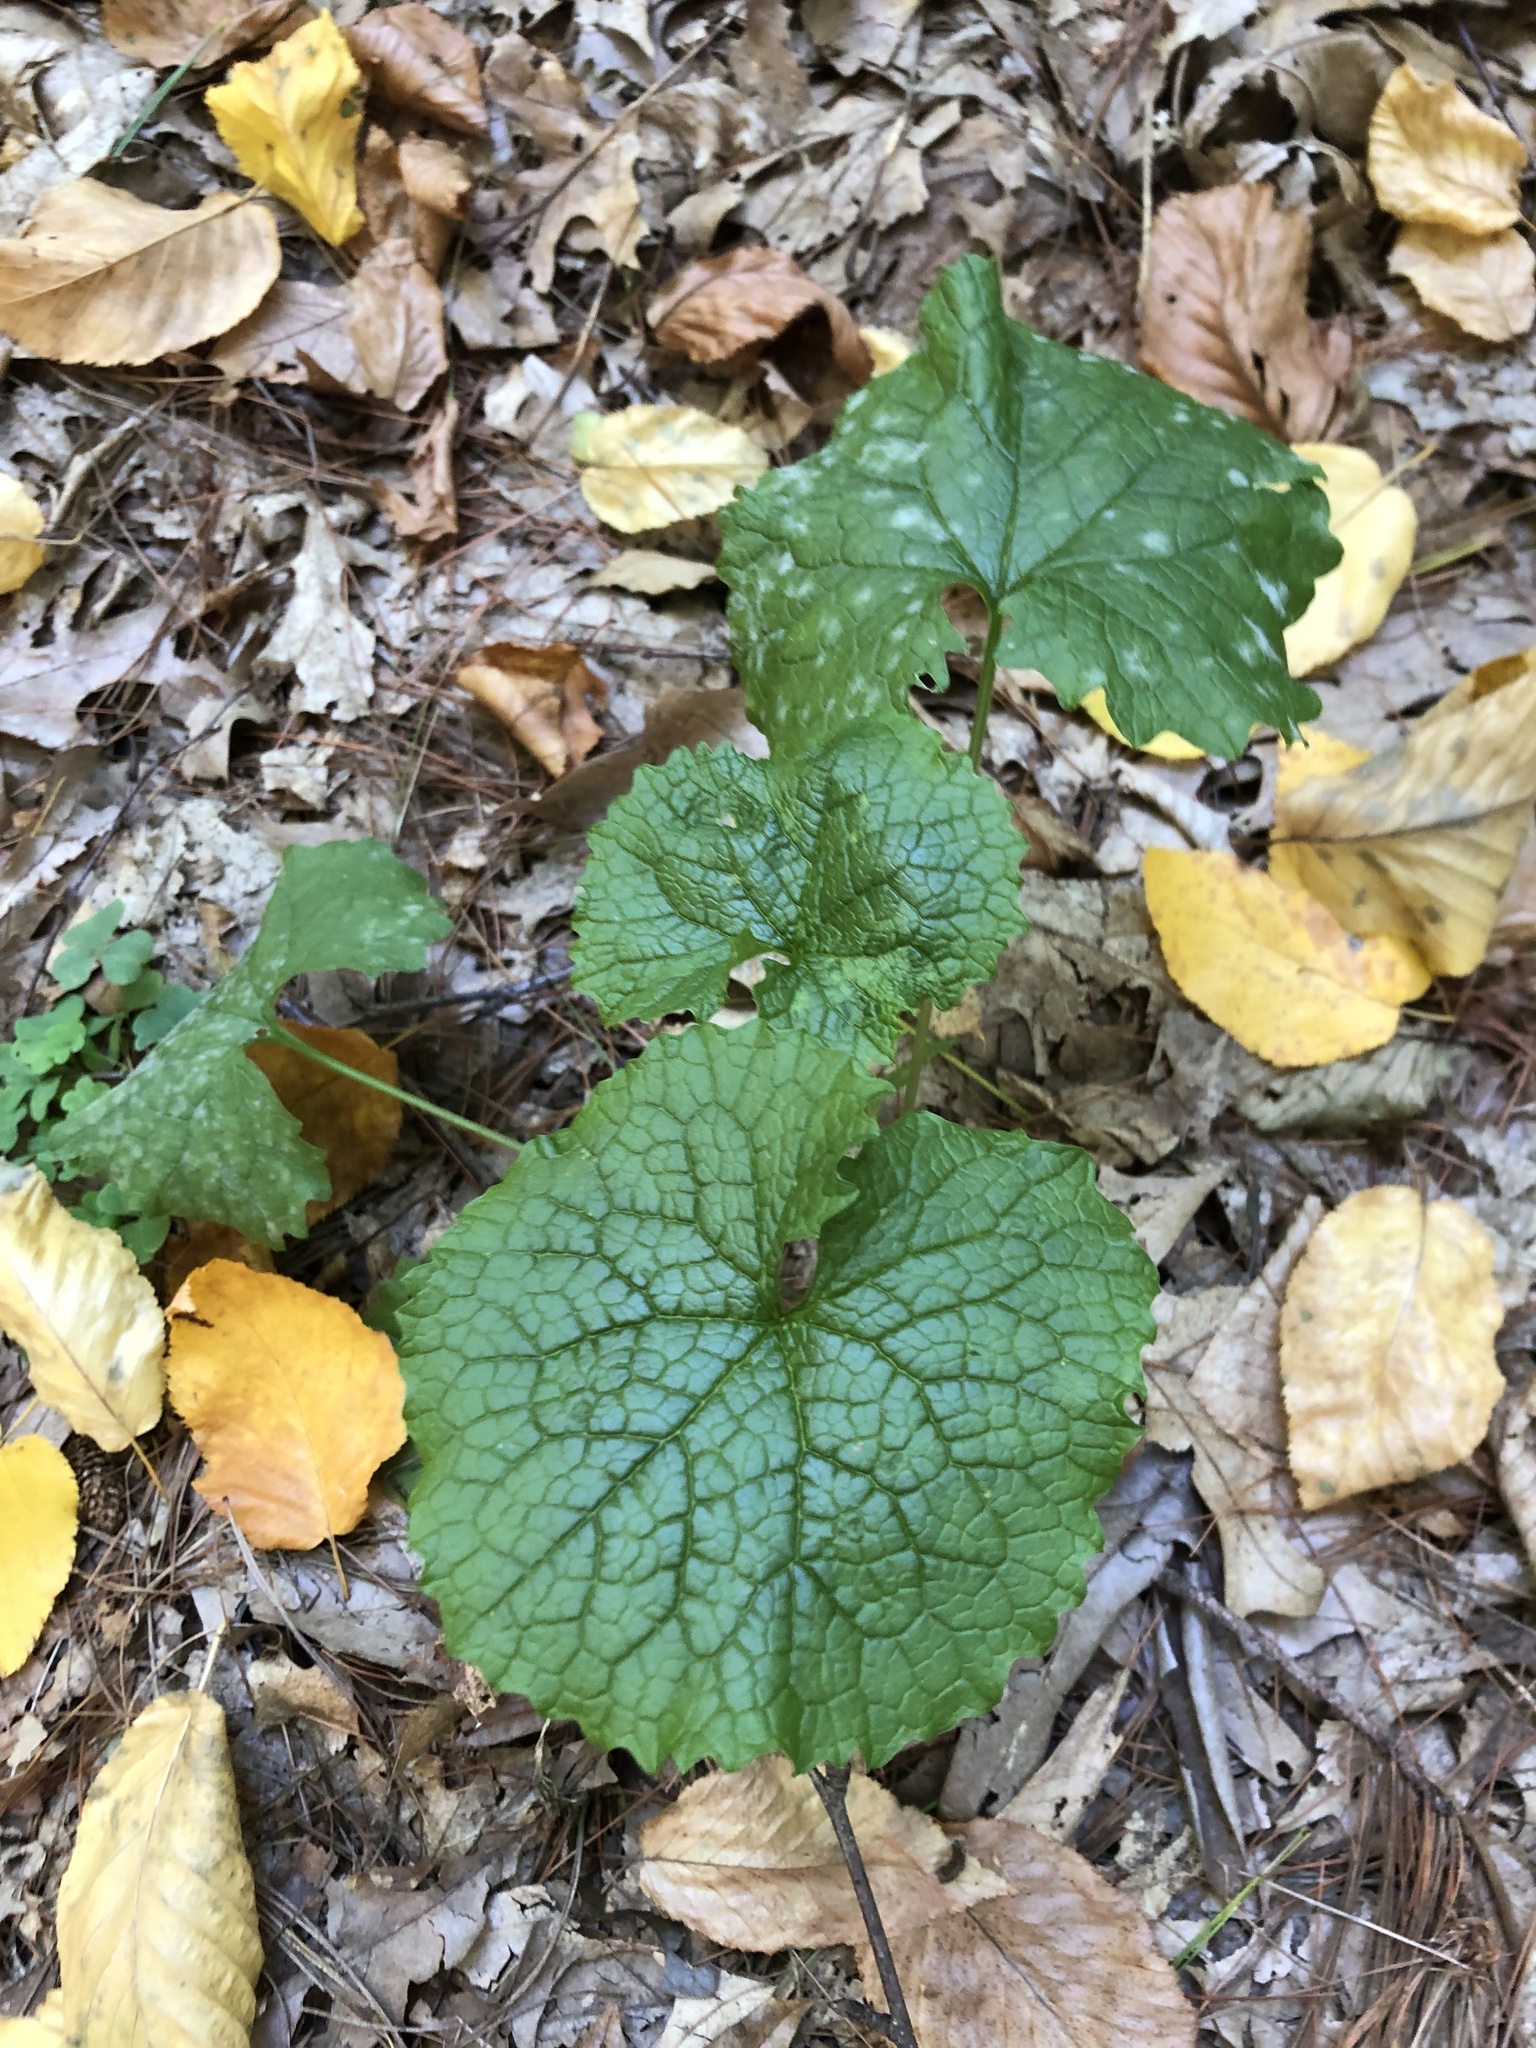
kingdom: Plantae
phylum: Tracheophyta
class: Magnoliopsida
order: Brassicales
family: Brassicaceae
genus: Alliaria
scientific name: Alliaria petiolata
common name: Garlic mustard
